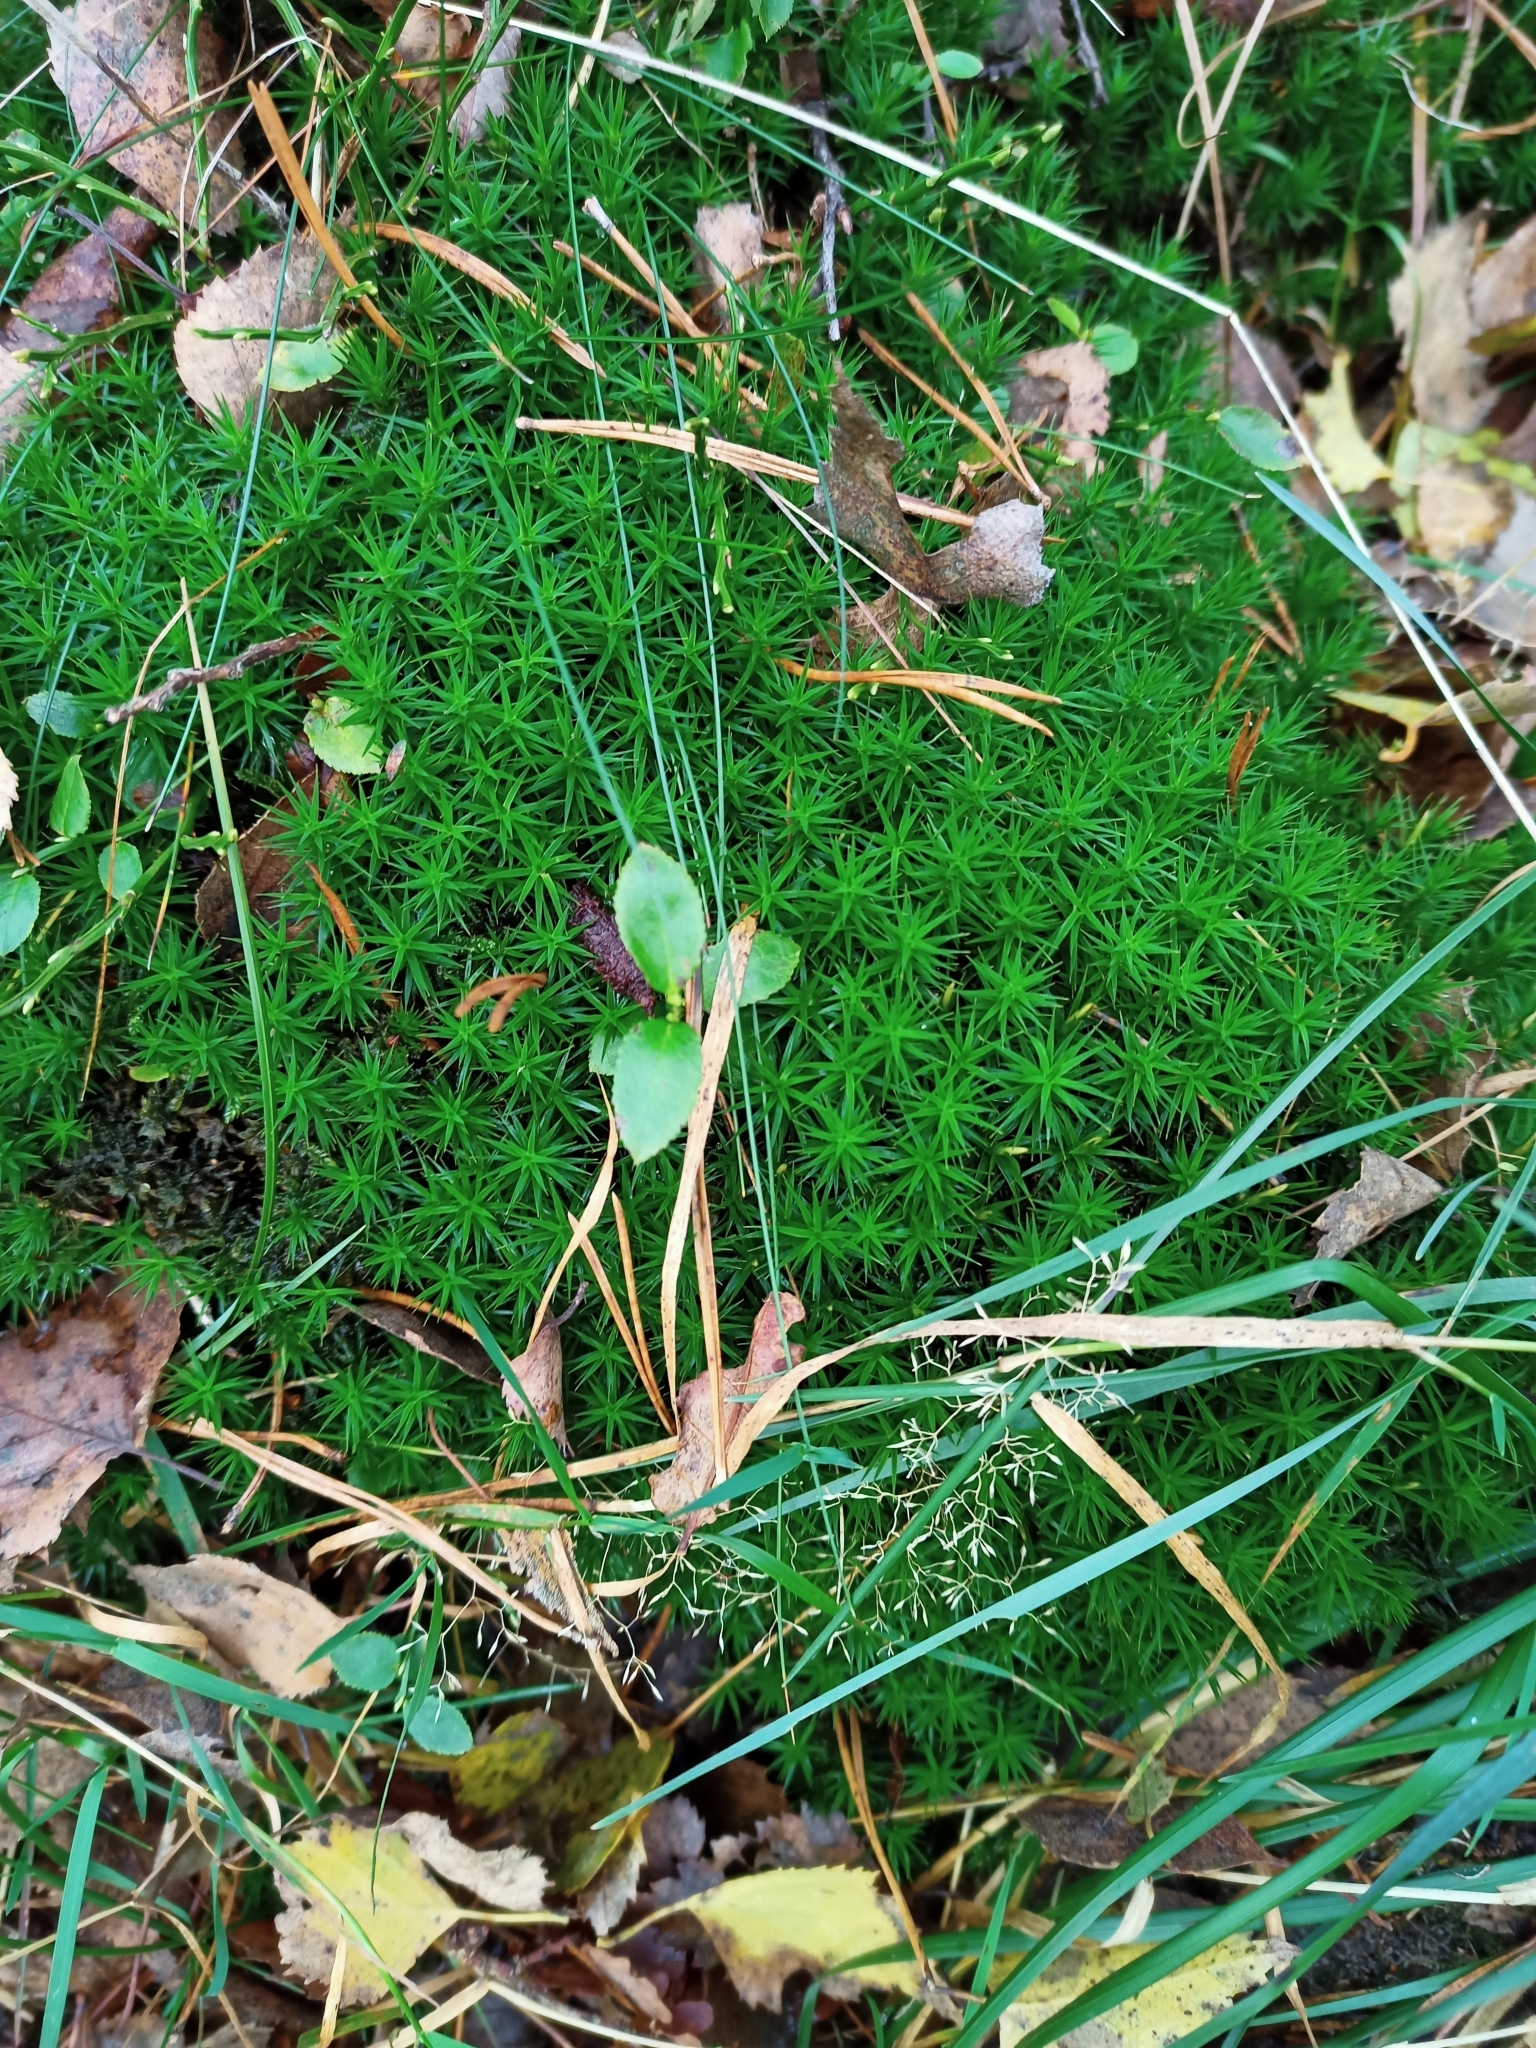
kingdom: Plantae
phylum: Bryophyta
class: Polytrichopsida
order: Polytrichales
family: Polytrichaceae
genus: Polytrichum
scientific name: Polytrichum formosum
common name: Bank haircap moss
